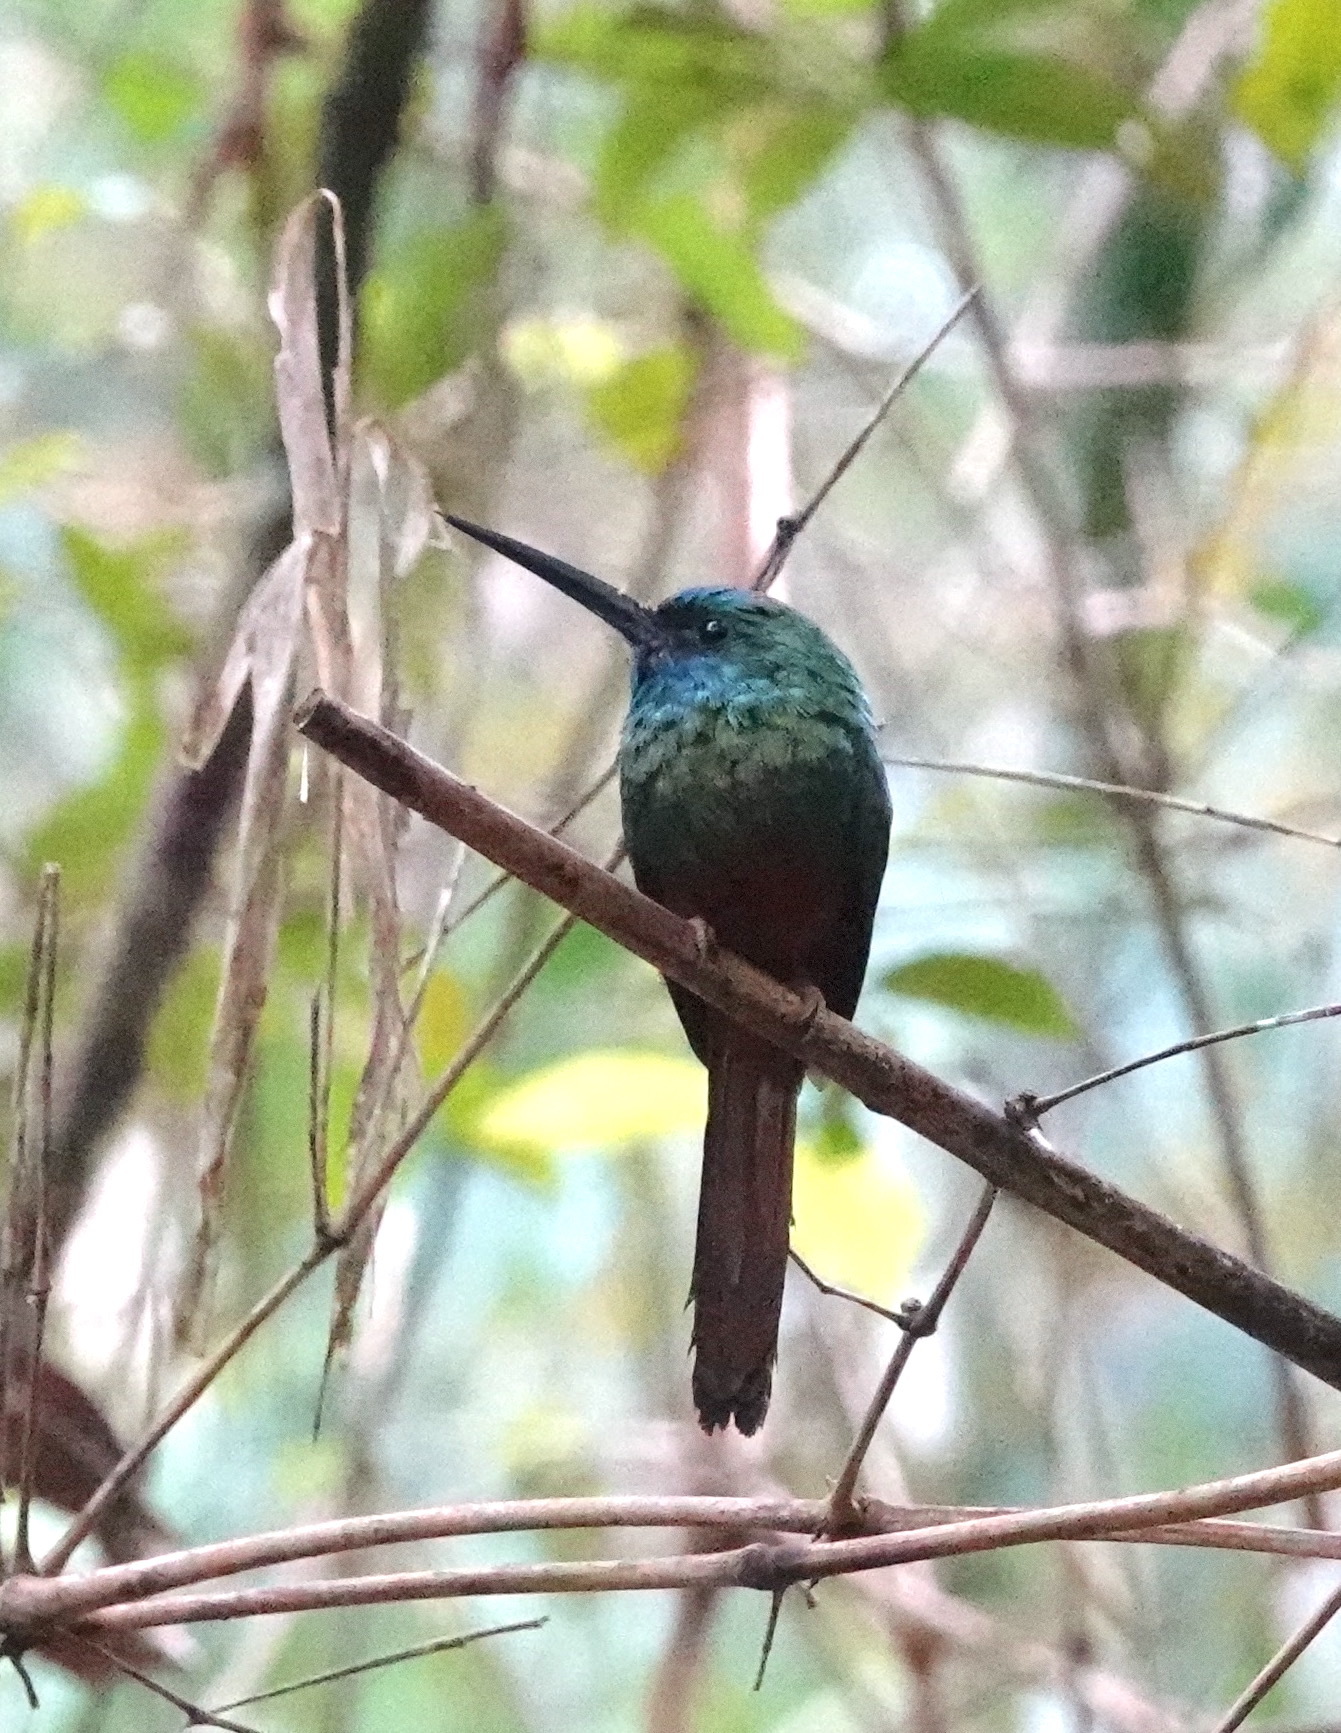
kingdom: Animalia
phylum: Chordata
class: Aves
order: Piciformes
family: Galbulidae
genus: Galbula
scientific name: Galbula cyanescens
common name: Bluish-fronted jacamar
